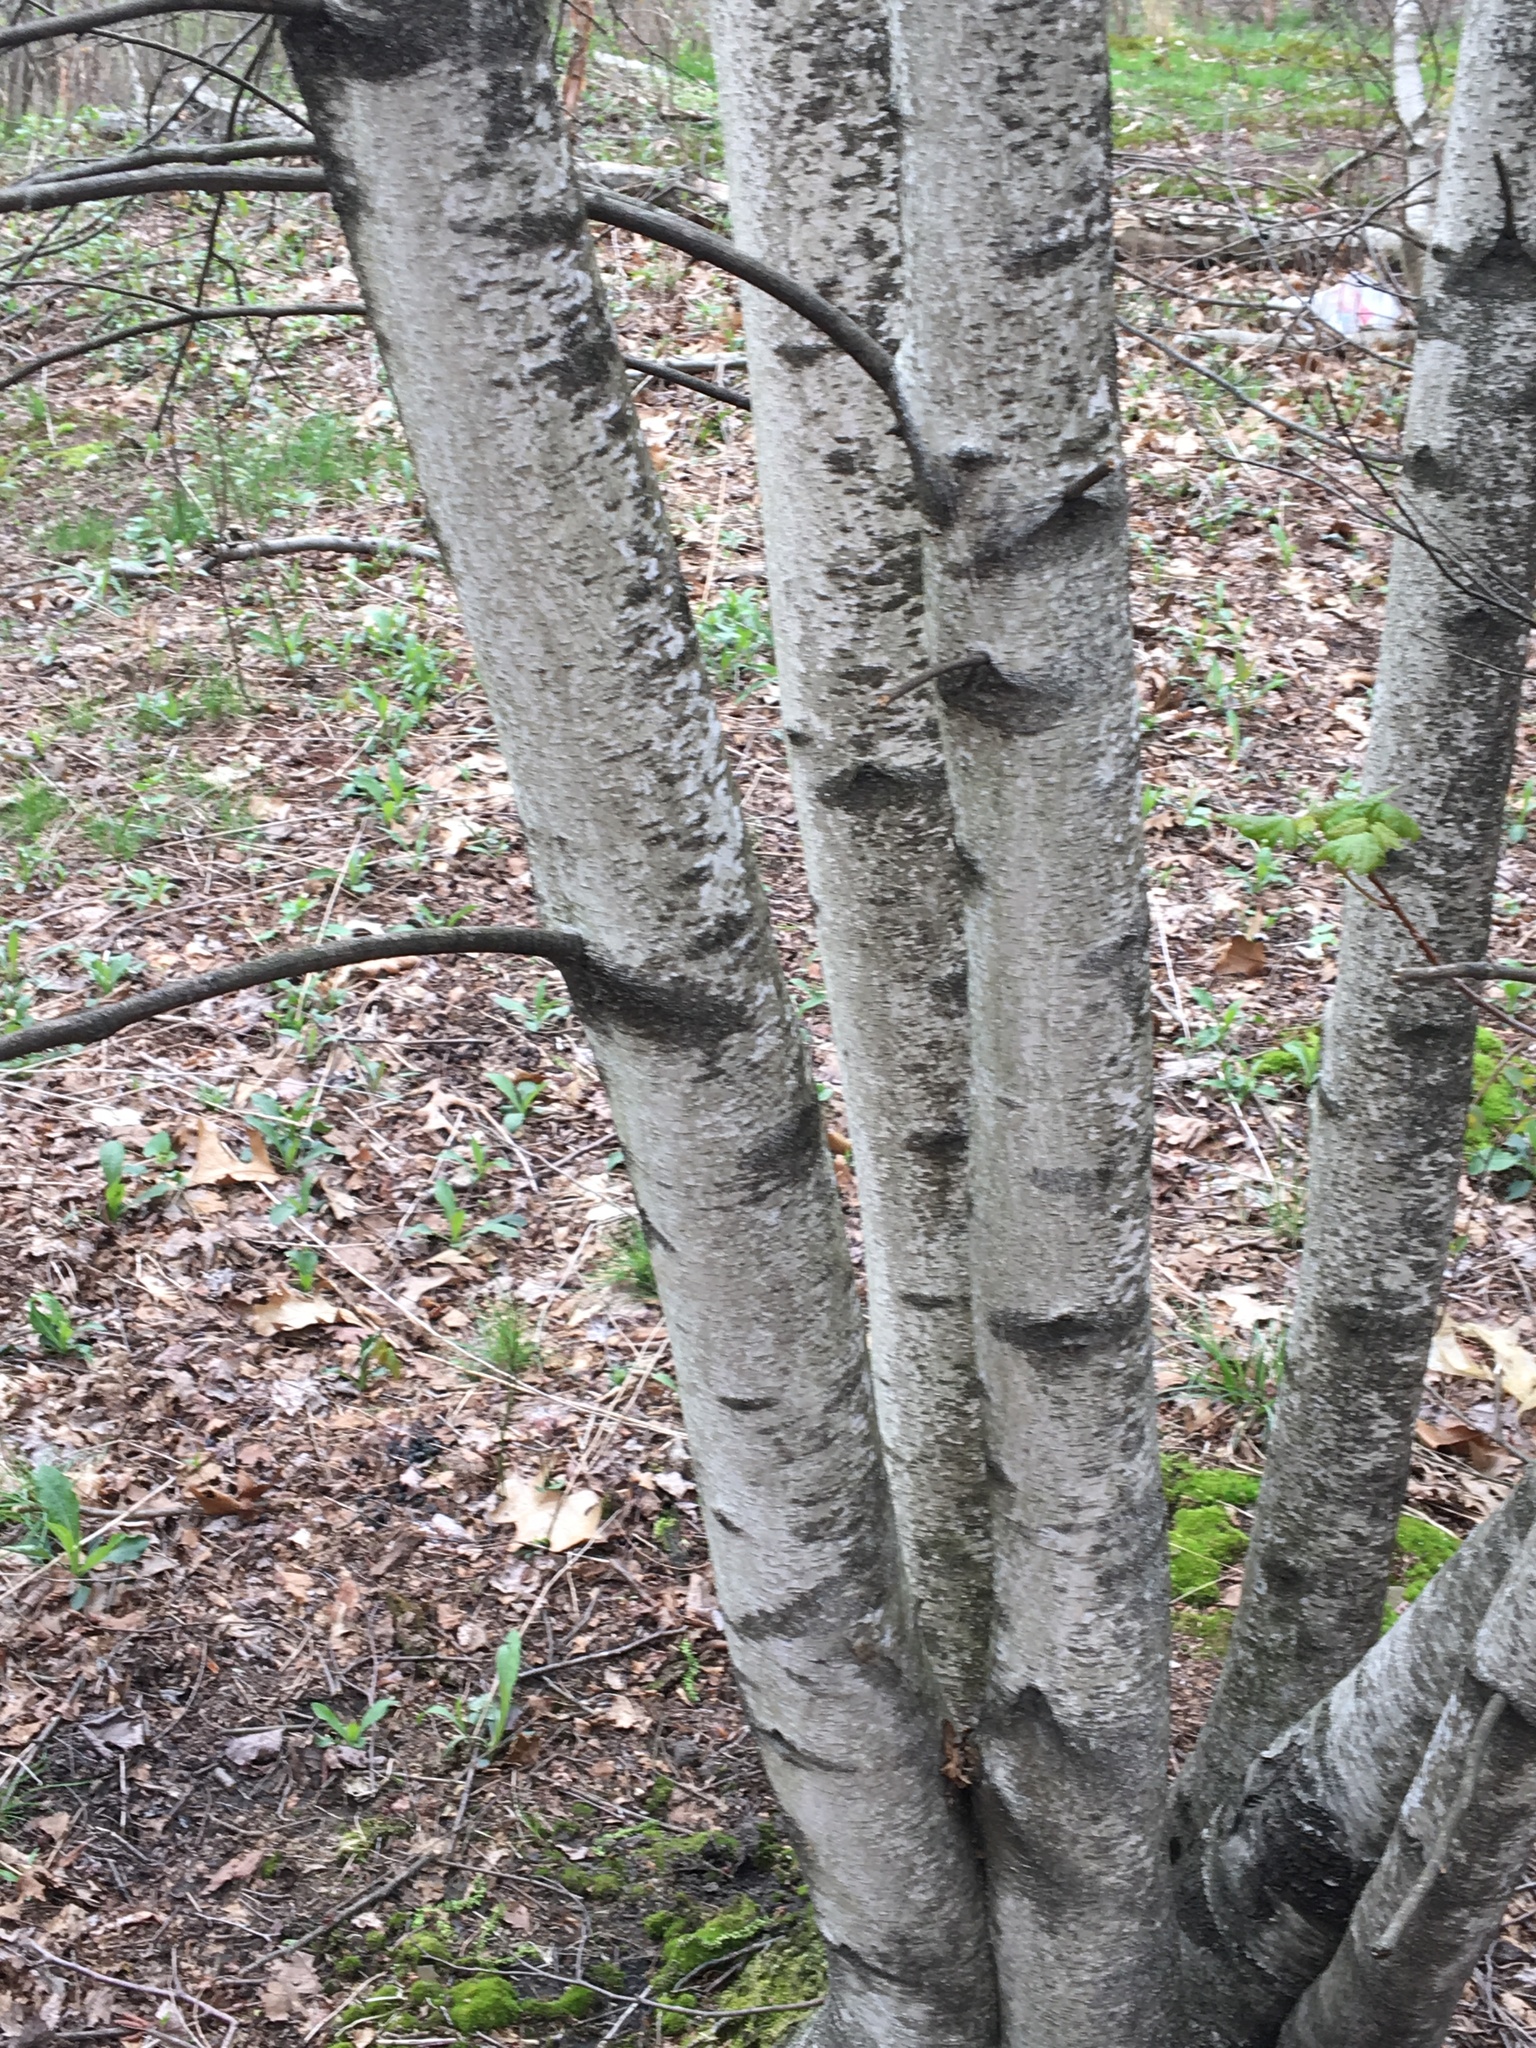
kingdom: Plantae
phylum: Tracheophyta
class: Magnoliopsida
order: Fagales
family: Betulaceae
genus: Betula
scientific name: Betula populifolia
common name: Fire birch
